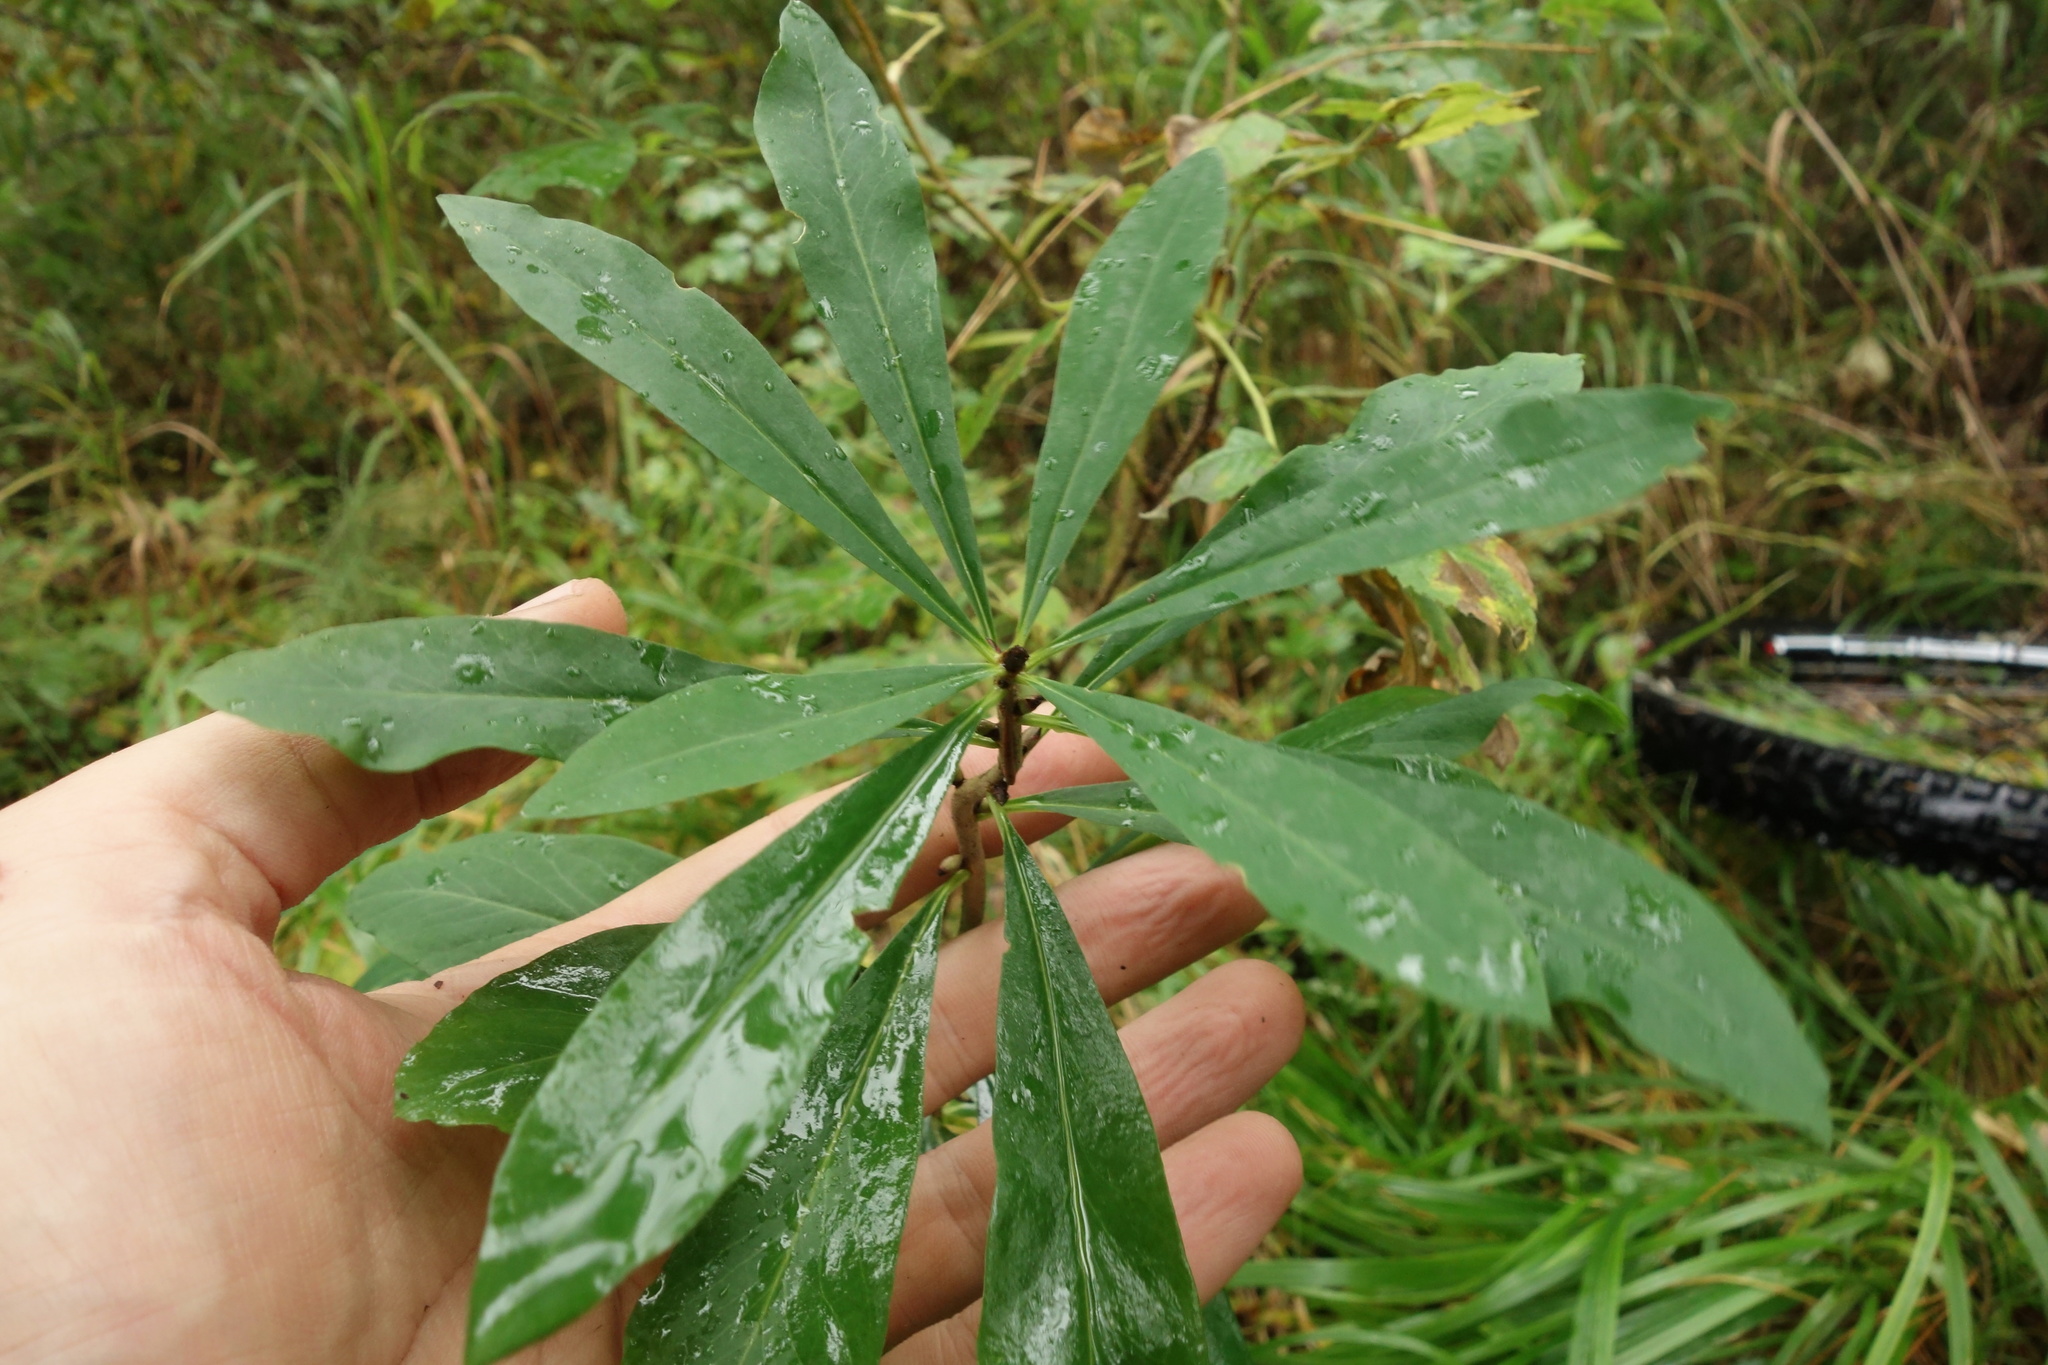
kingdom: Plantae
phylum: Tracheophyta
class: Magnoliopsida
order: Malvales
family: Thymelaeaceae
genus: Daphne
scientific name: Daphne mezereum
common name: Mezereon
